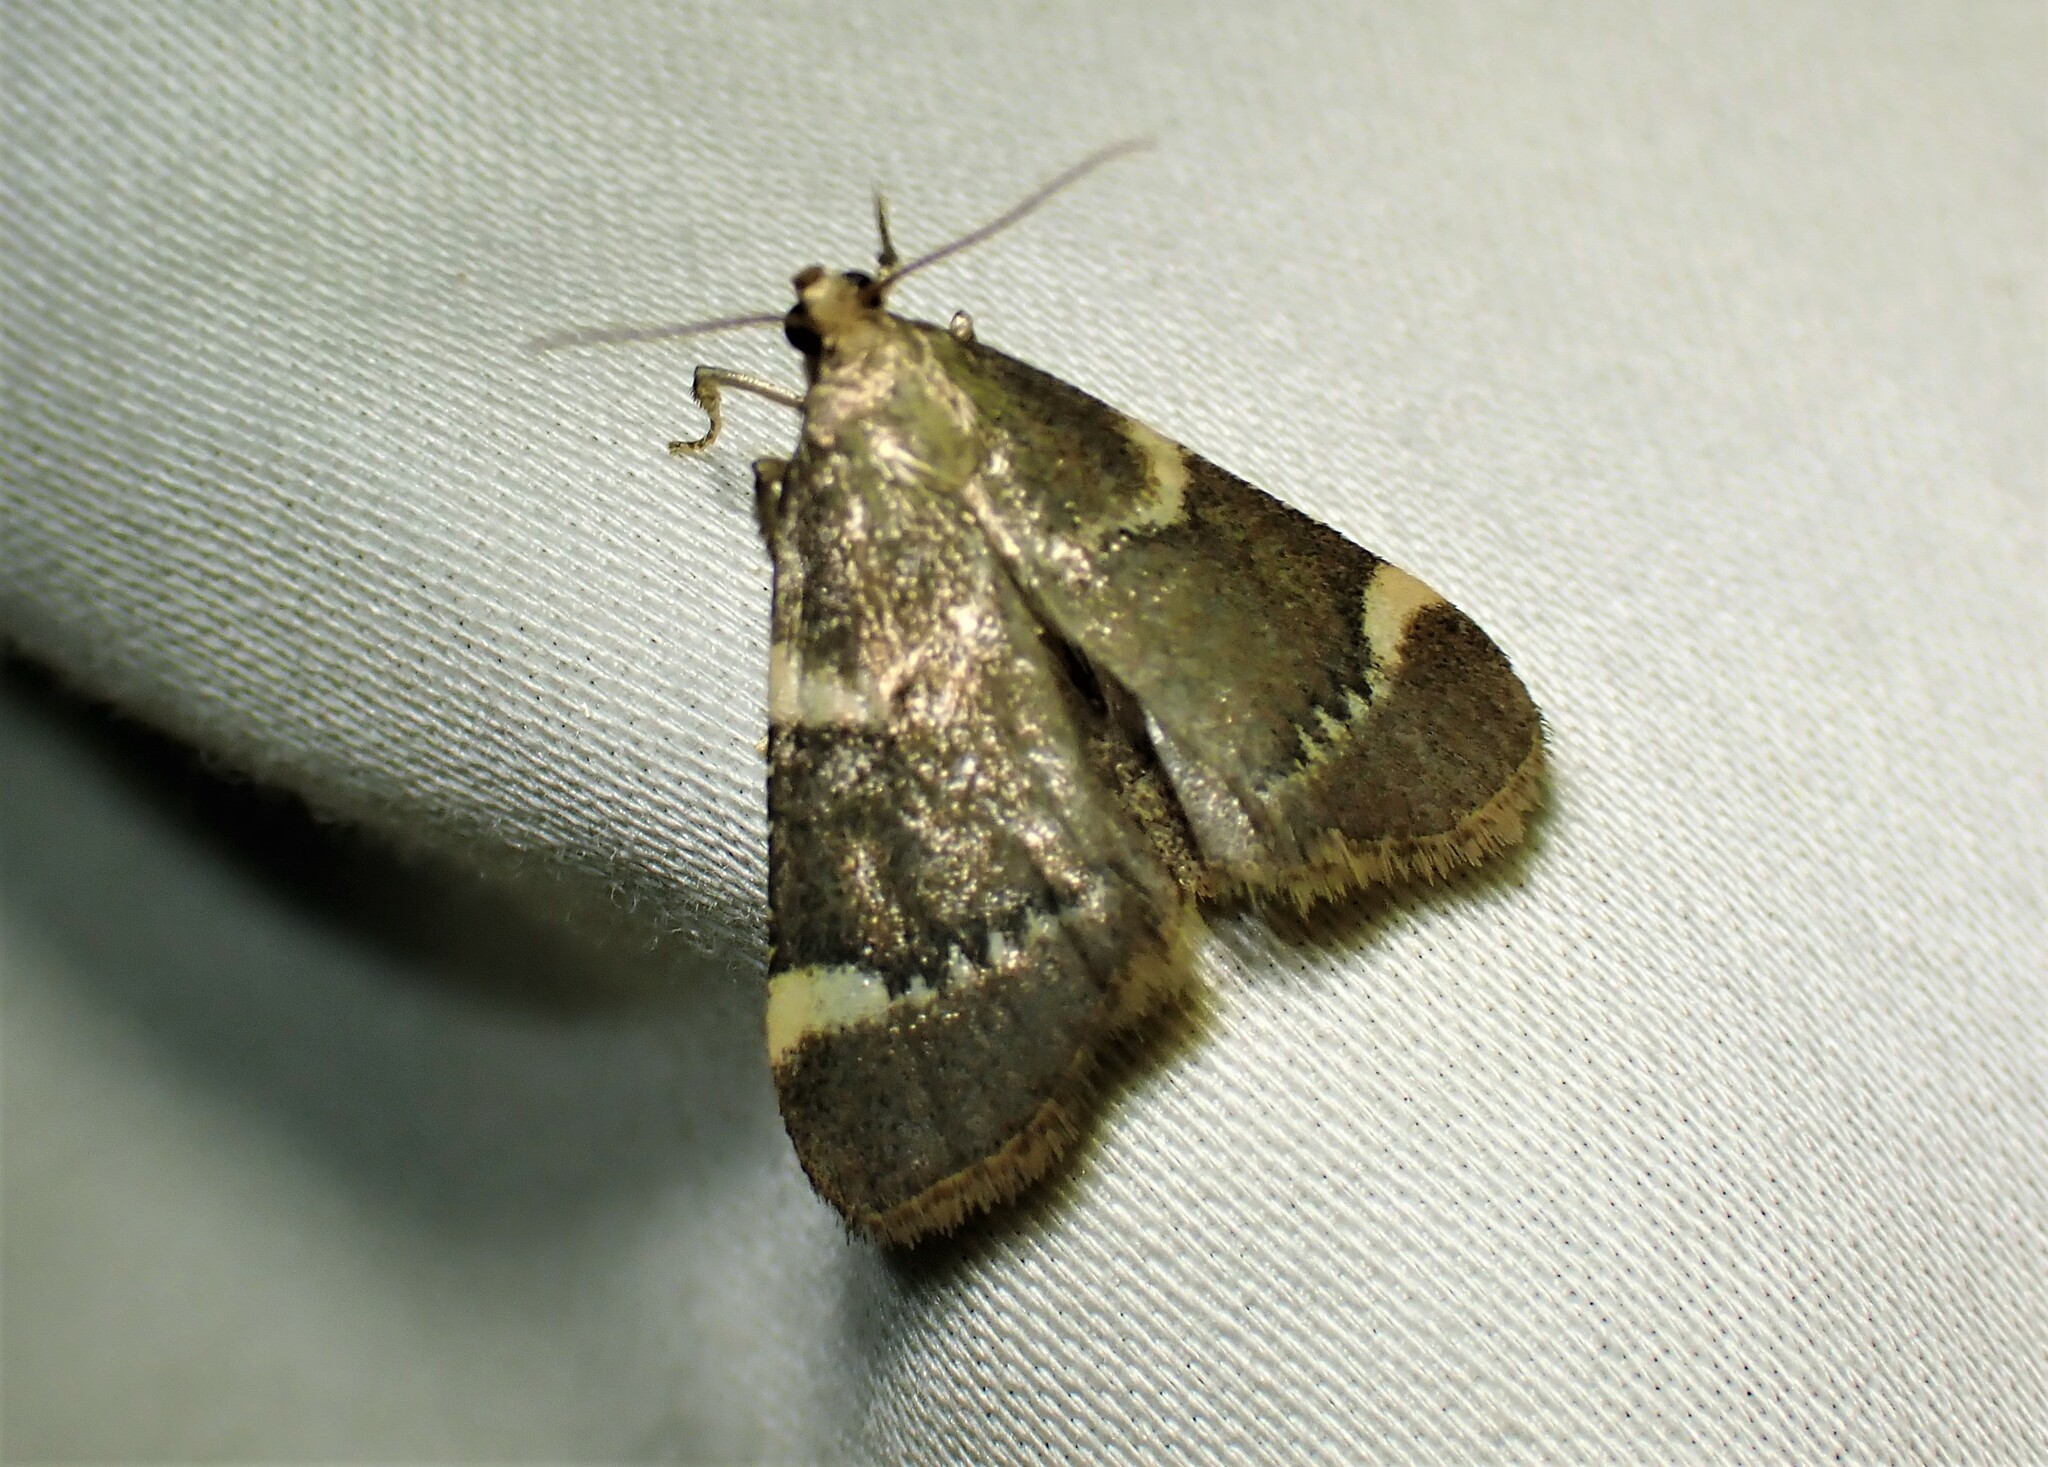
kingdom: Animalia
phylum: Arthropoda
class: Insecta
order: Lepidoptera
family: Pyralidae
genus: Hypsopygia
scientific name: Hypsopygia intermedialis
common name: Red-shawled moth
